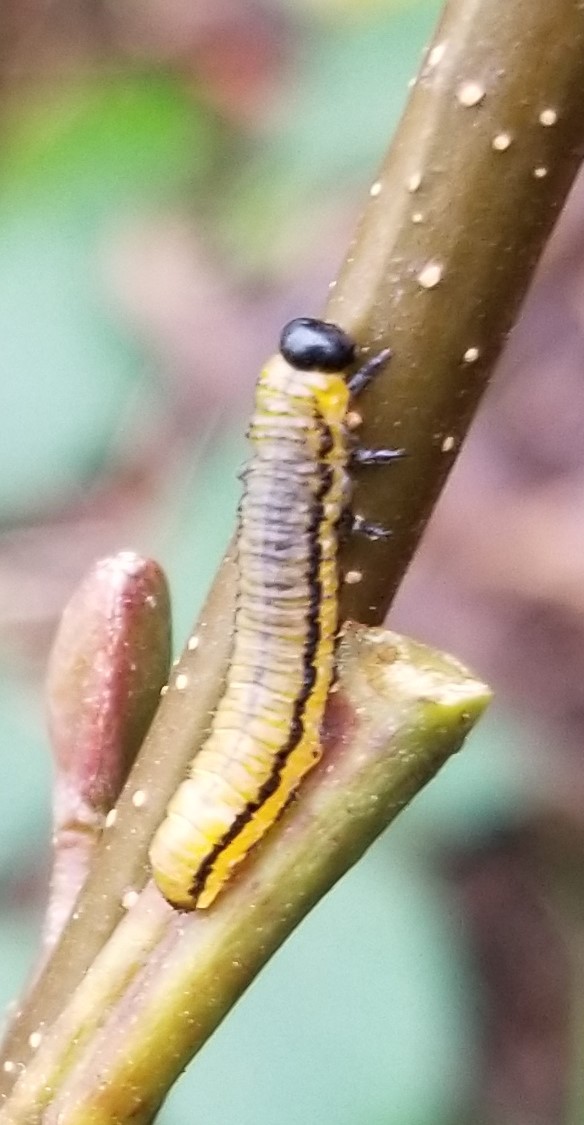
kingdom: Animalia
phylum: Arthropoda
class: Insecta
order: Hymenoptera
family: Tenthredinidae
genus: Hemichroa
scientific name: Hemichroa crocea
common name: Striped alder sawfly
